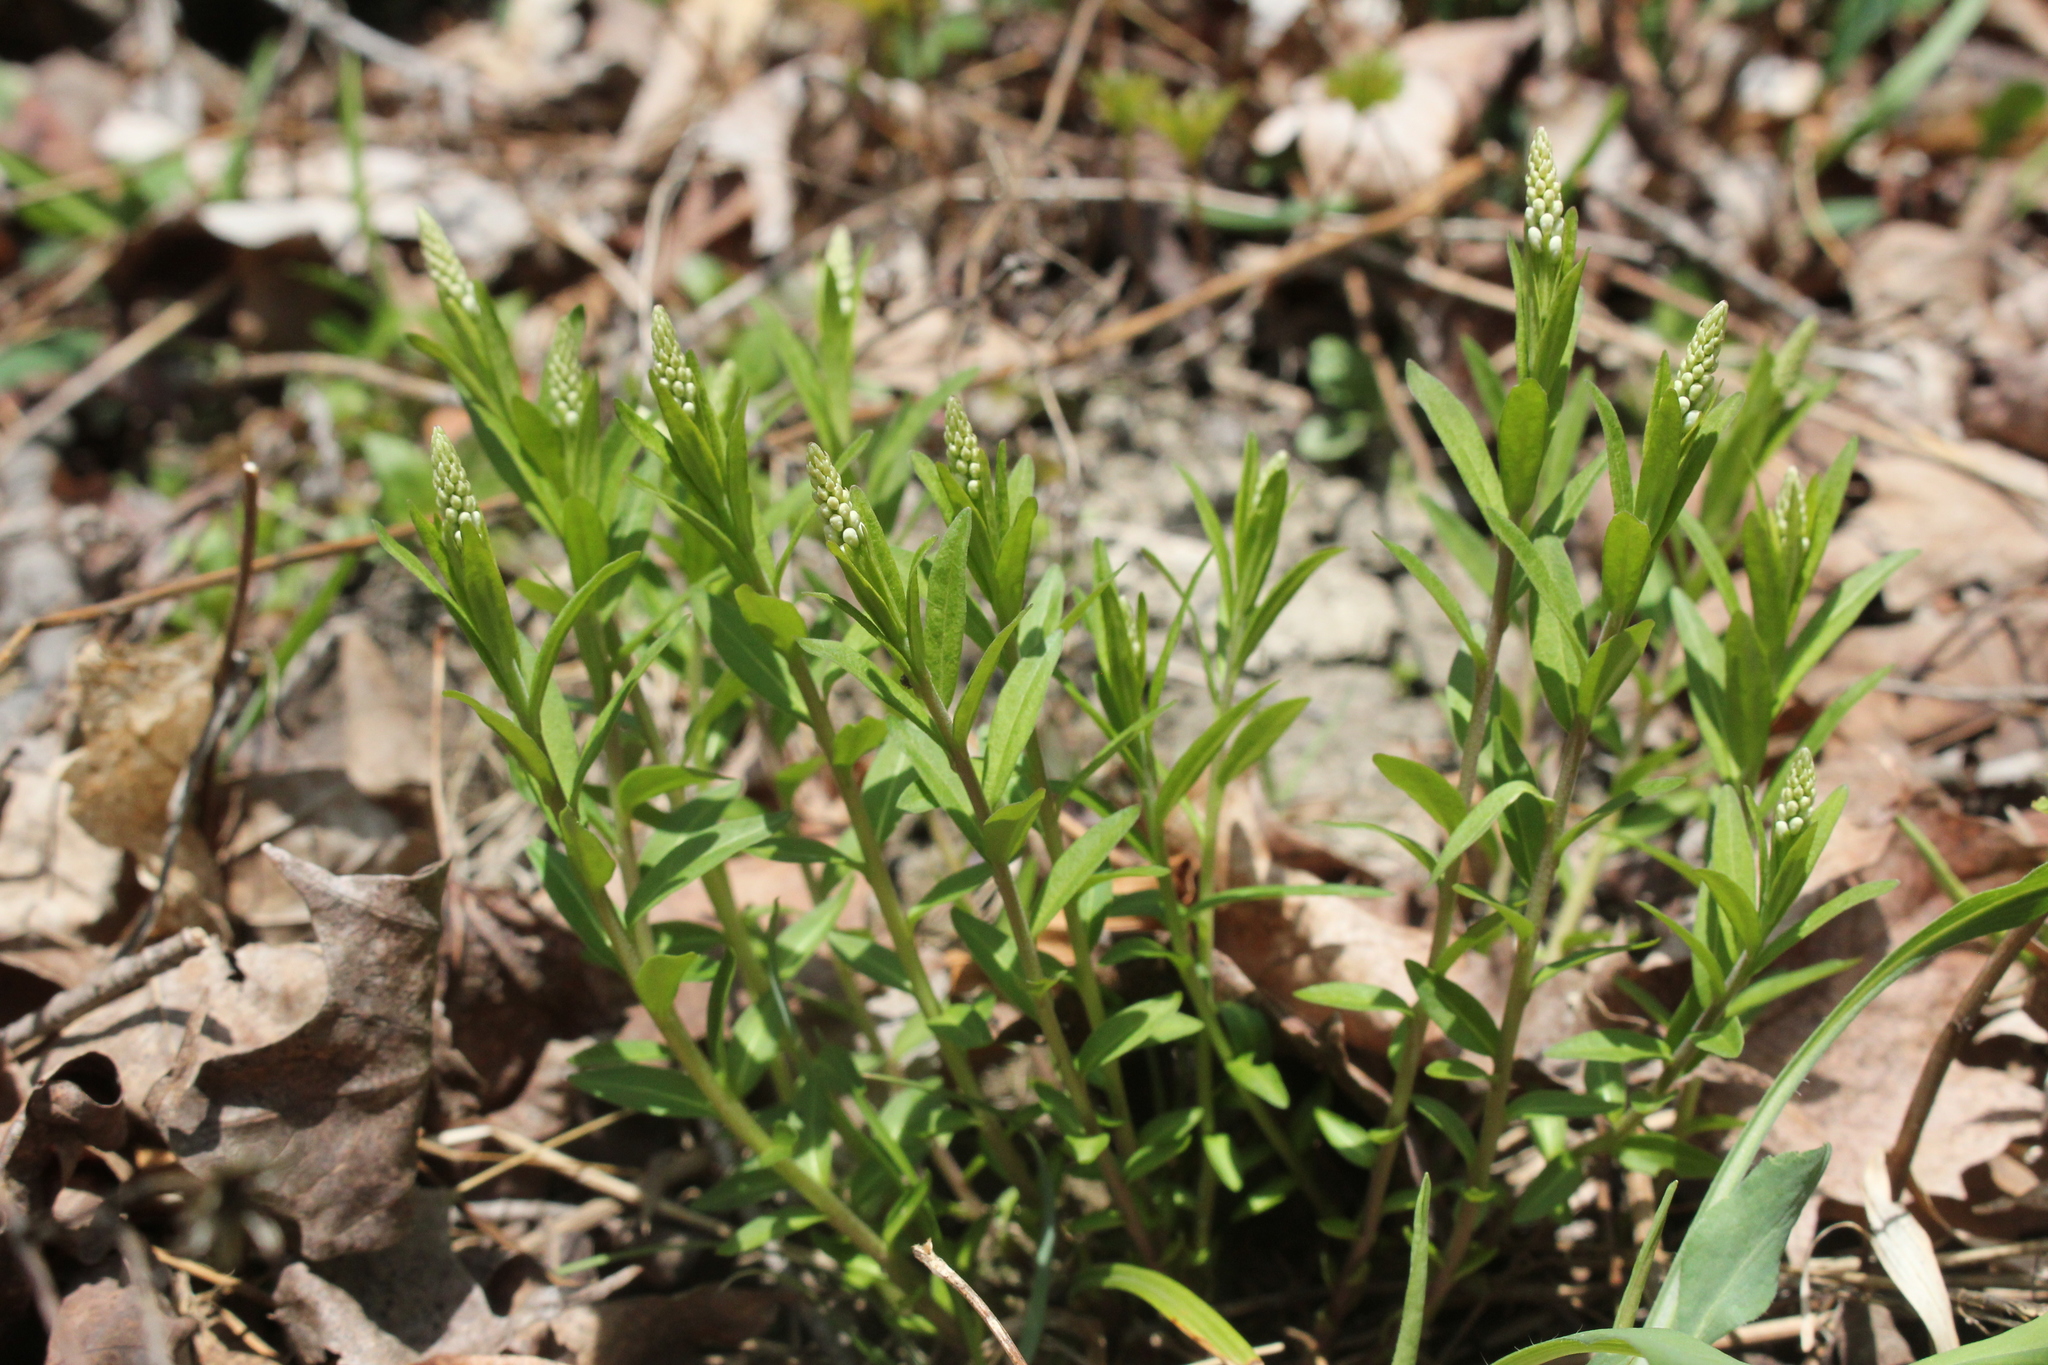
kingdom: Plantae
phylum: Tracheophyta
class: Magnoliopsida
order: Fabales
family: Polygalaceae
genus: Polygala
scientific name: Polygala senega
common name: Seneca snakeroot
